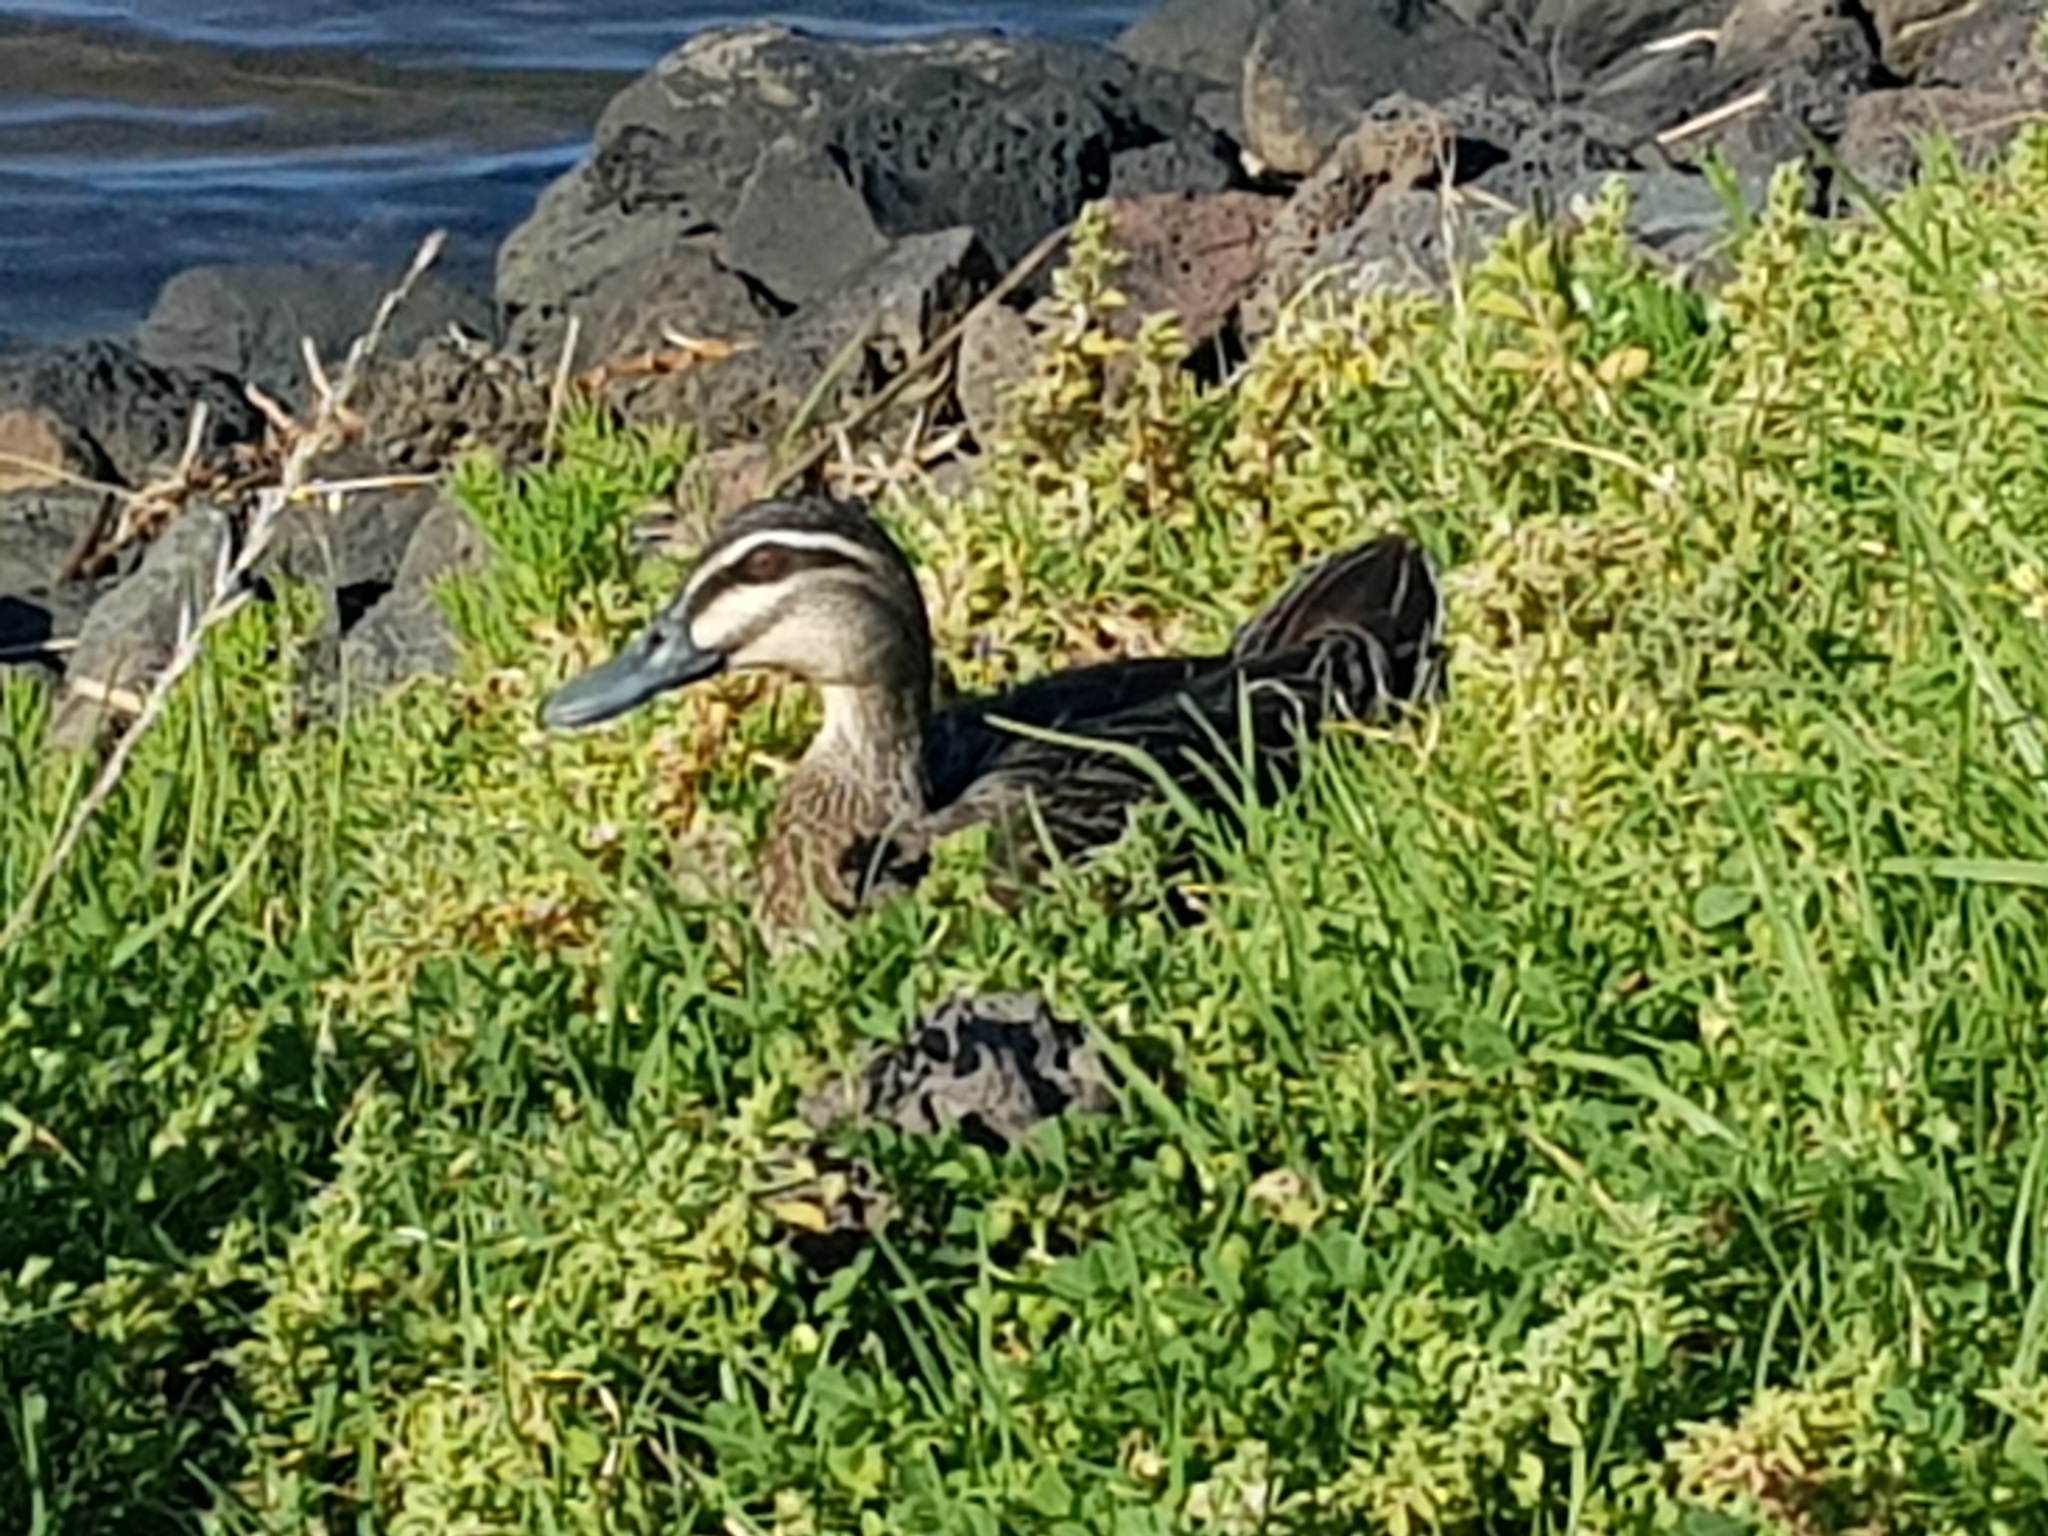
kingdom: Animalia
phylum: Chordata
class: Aves
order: Anseriformes
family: Anatidae
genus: Anas
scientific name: Anas superciliosa
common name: Pacific black duck
